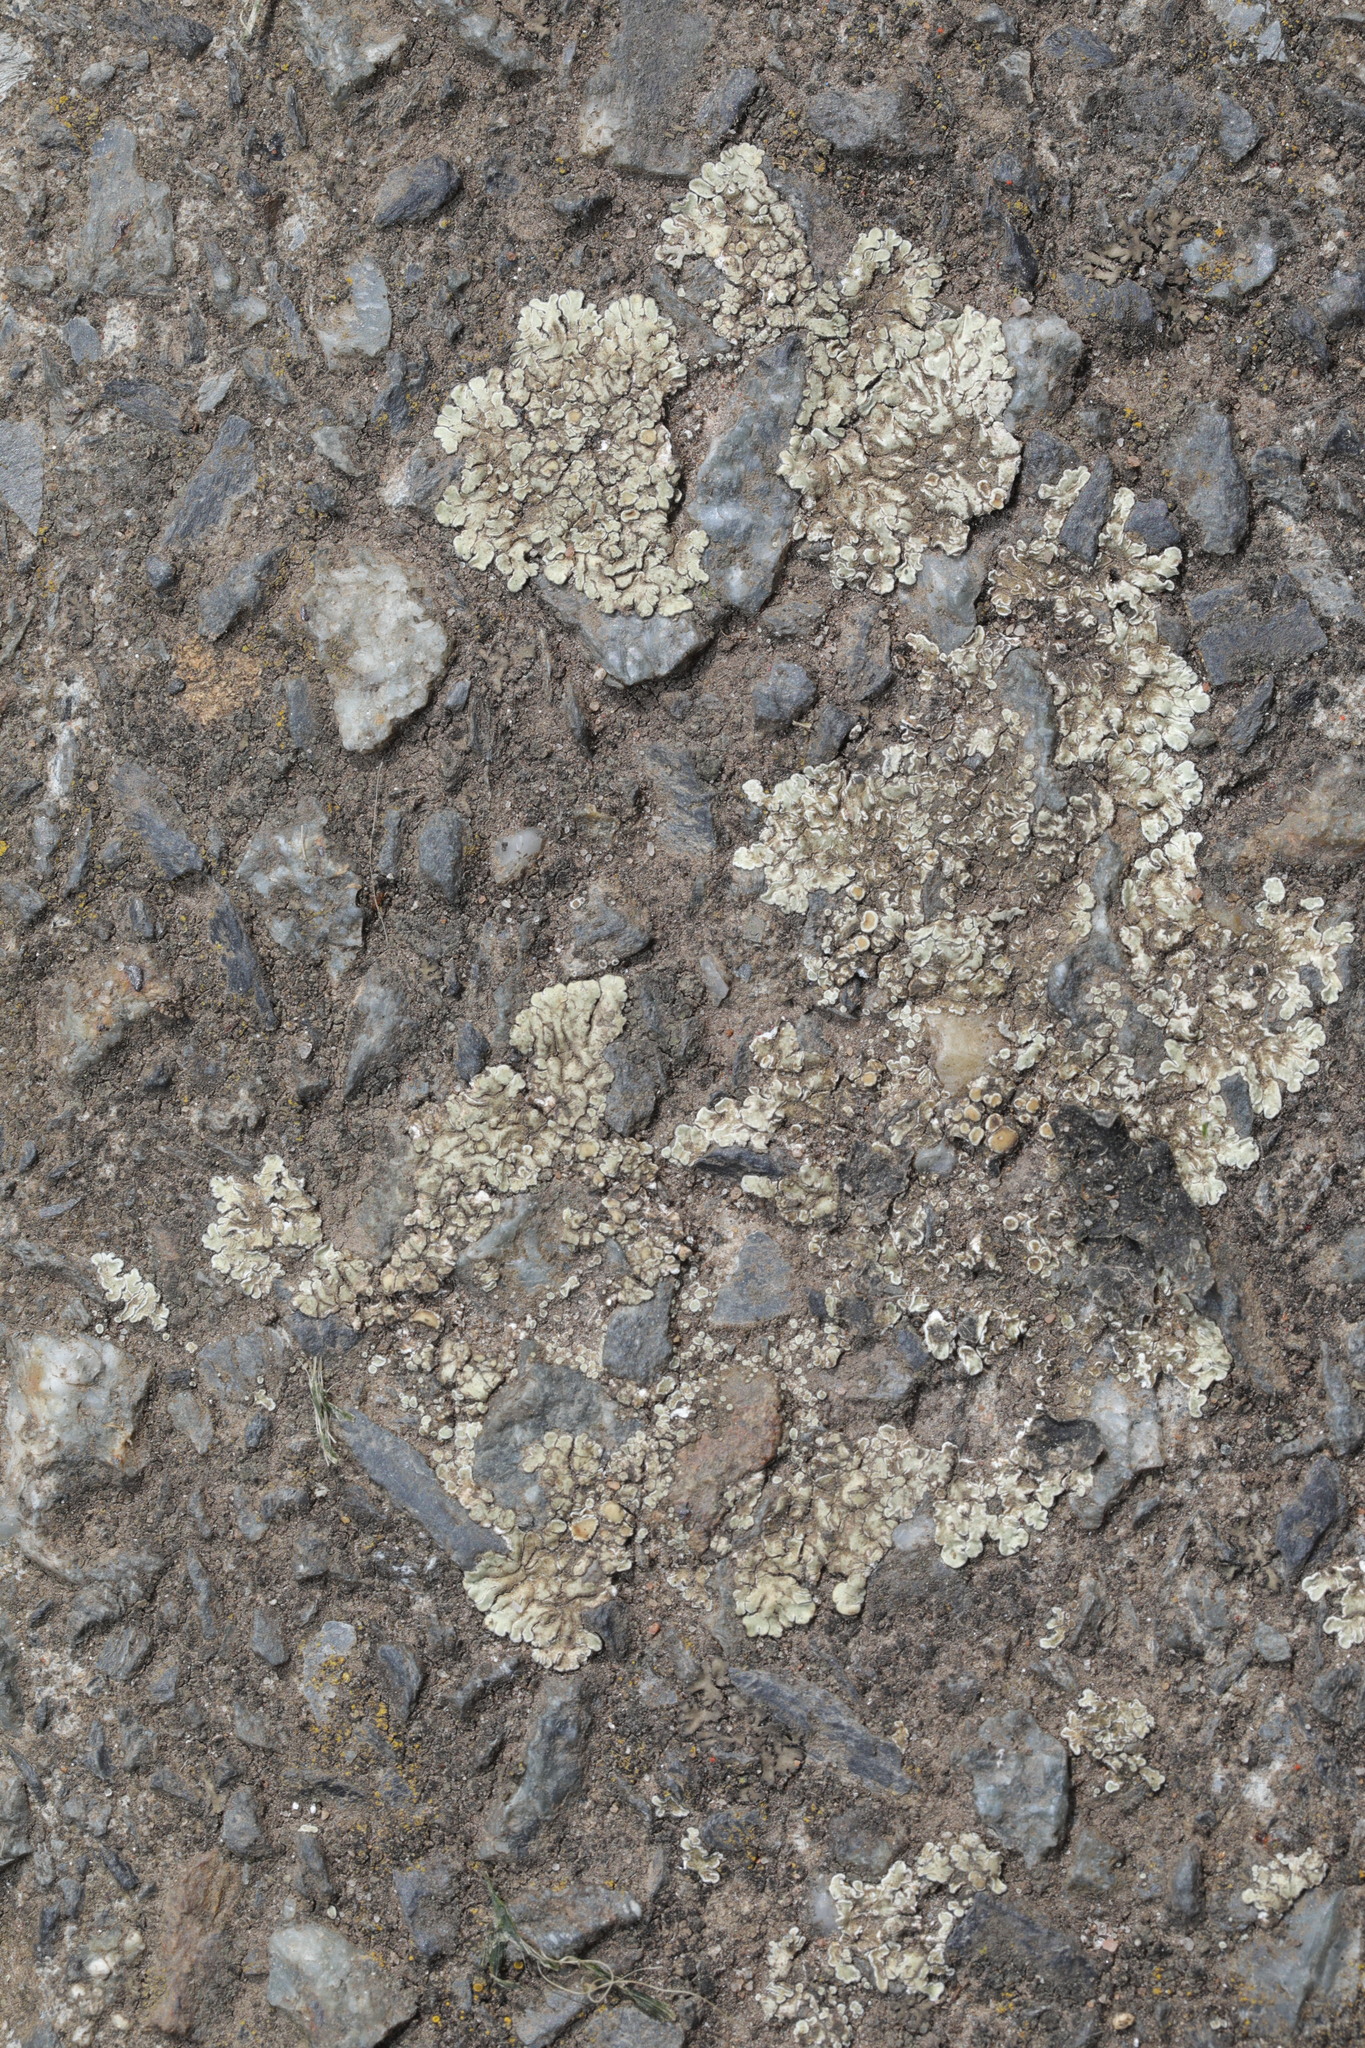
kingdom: Fungi
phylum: Ascomycota
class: Lecanoromycetes
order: Lecanorales
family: Lecanoraceae
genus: Protoparmeliopsis
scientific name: Protoparmeliopsis muralis
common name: Stonewall rim lichen
